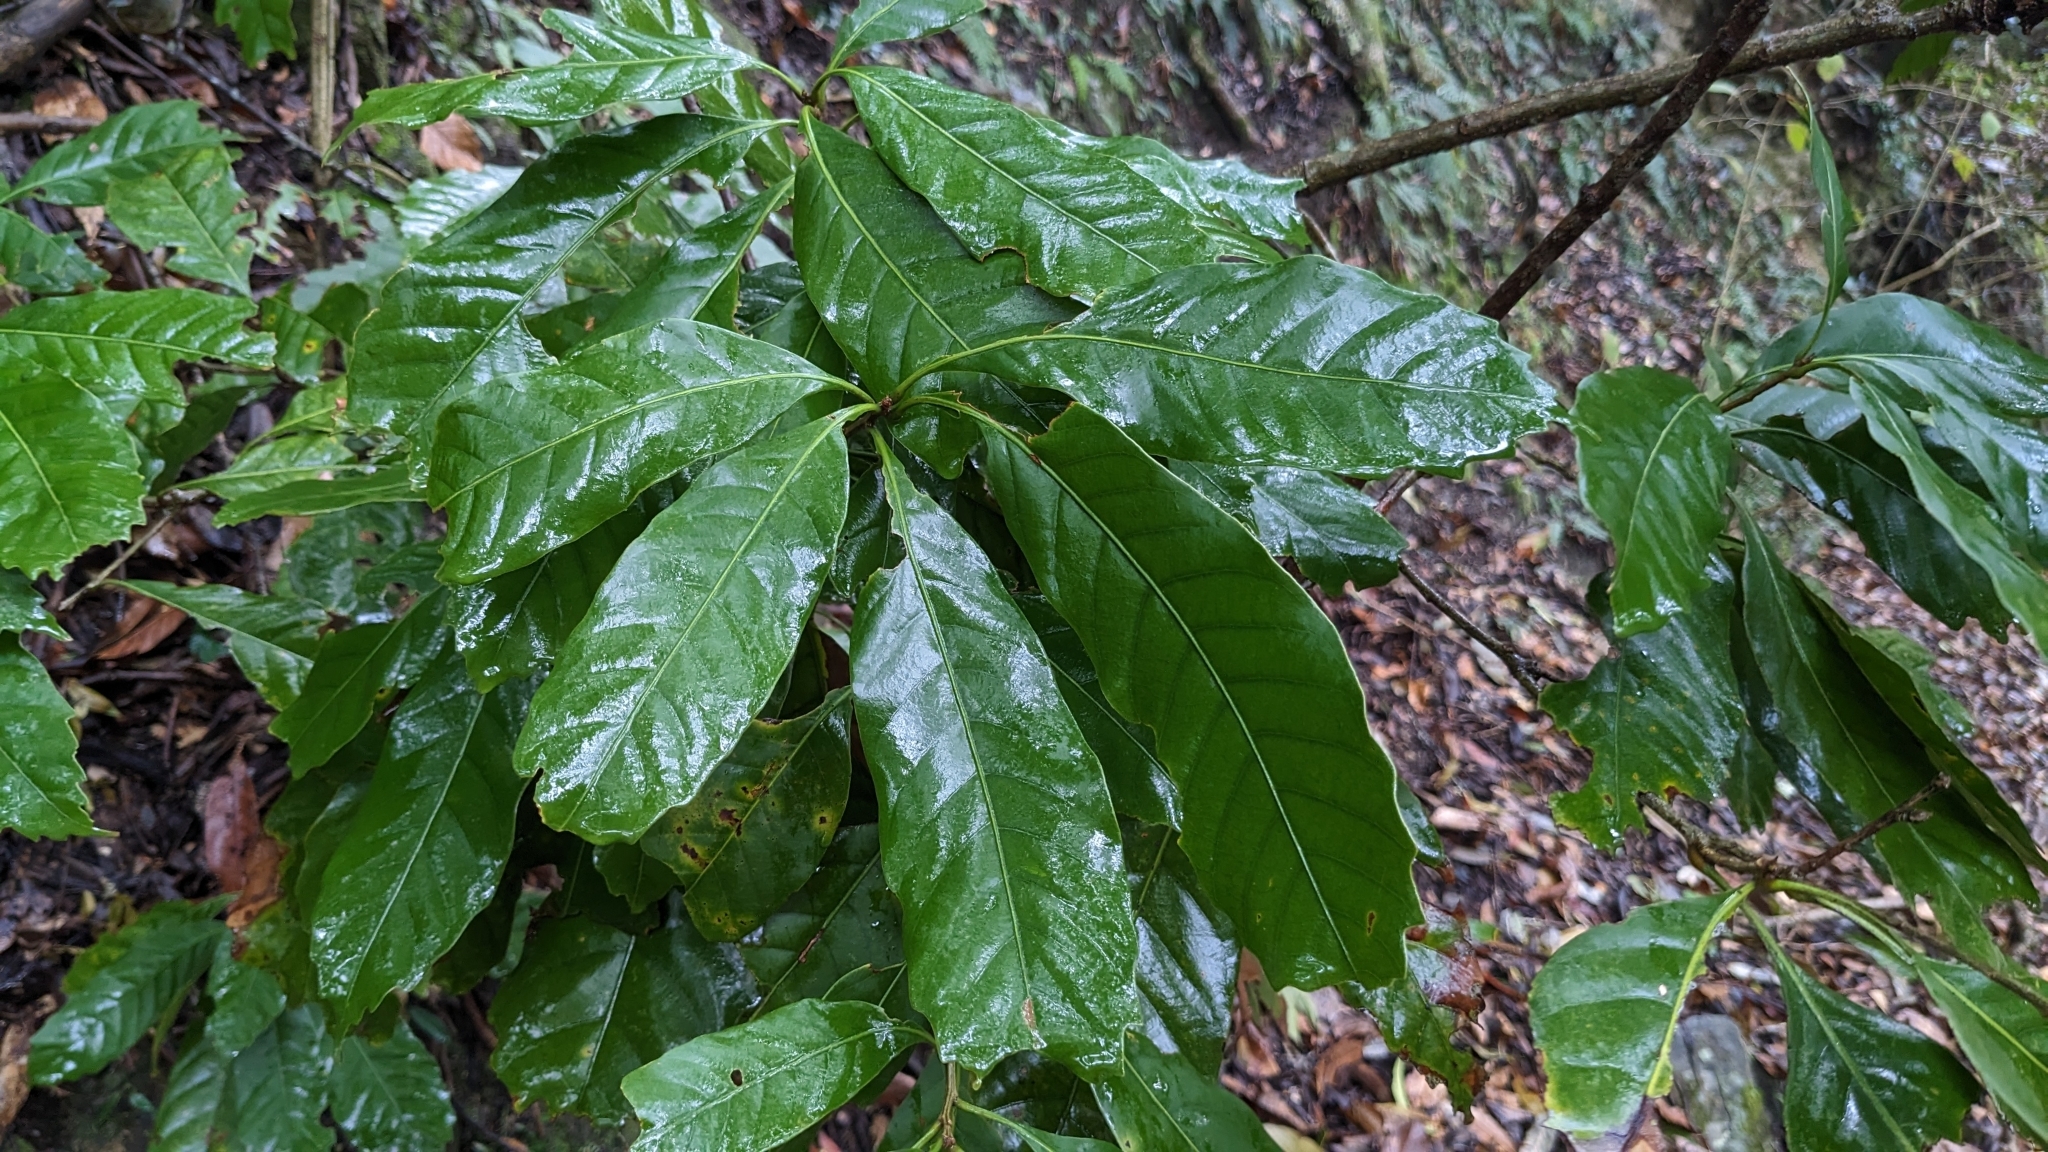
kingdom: Plantae
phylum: Tracheophyta
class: Magnoliopsida
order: Fagales
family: Fagaceae
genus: Lithocarpus
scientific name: Lithocarpus kawakamii
